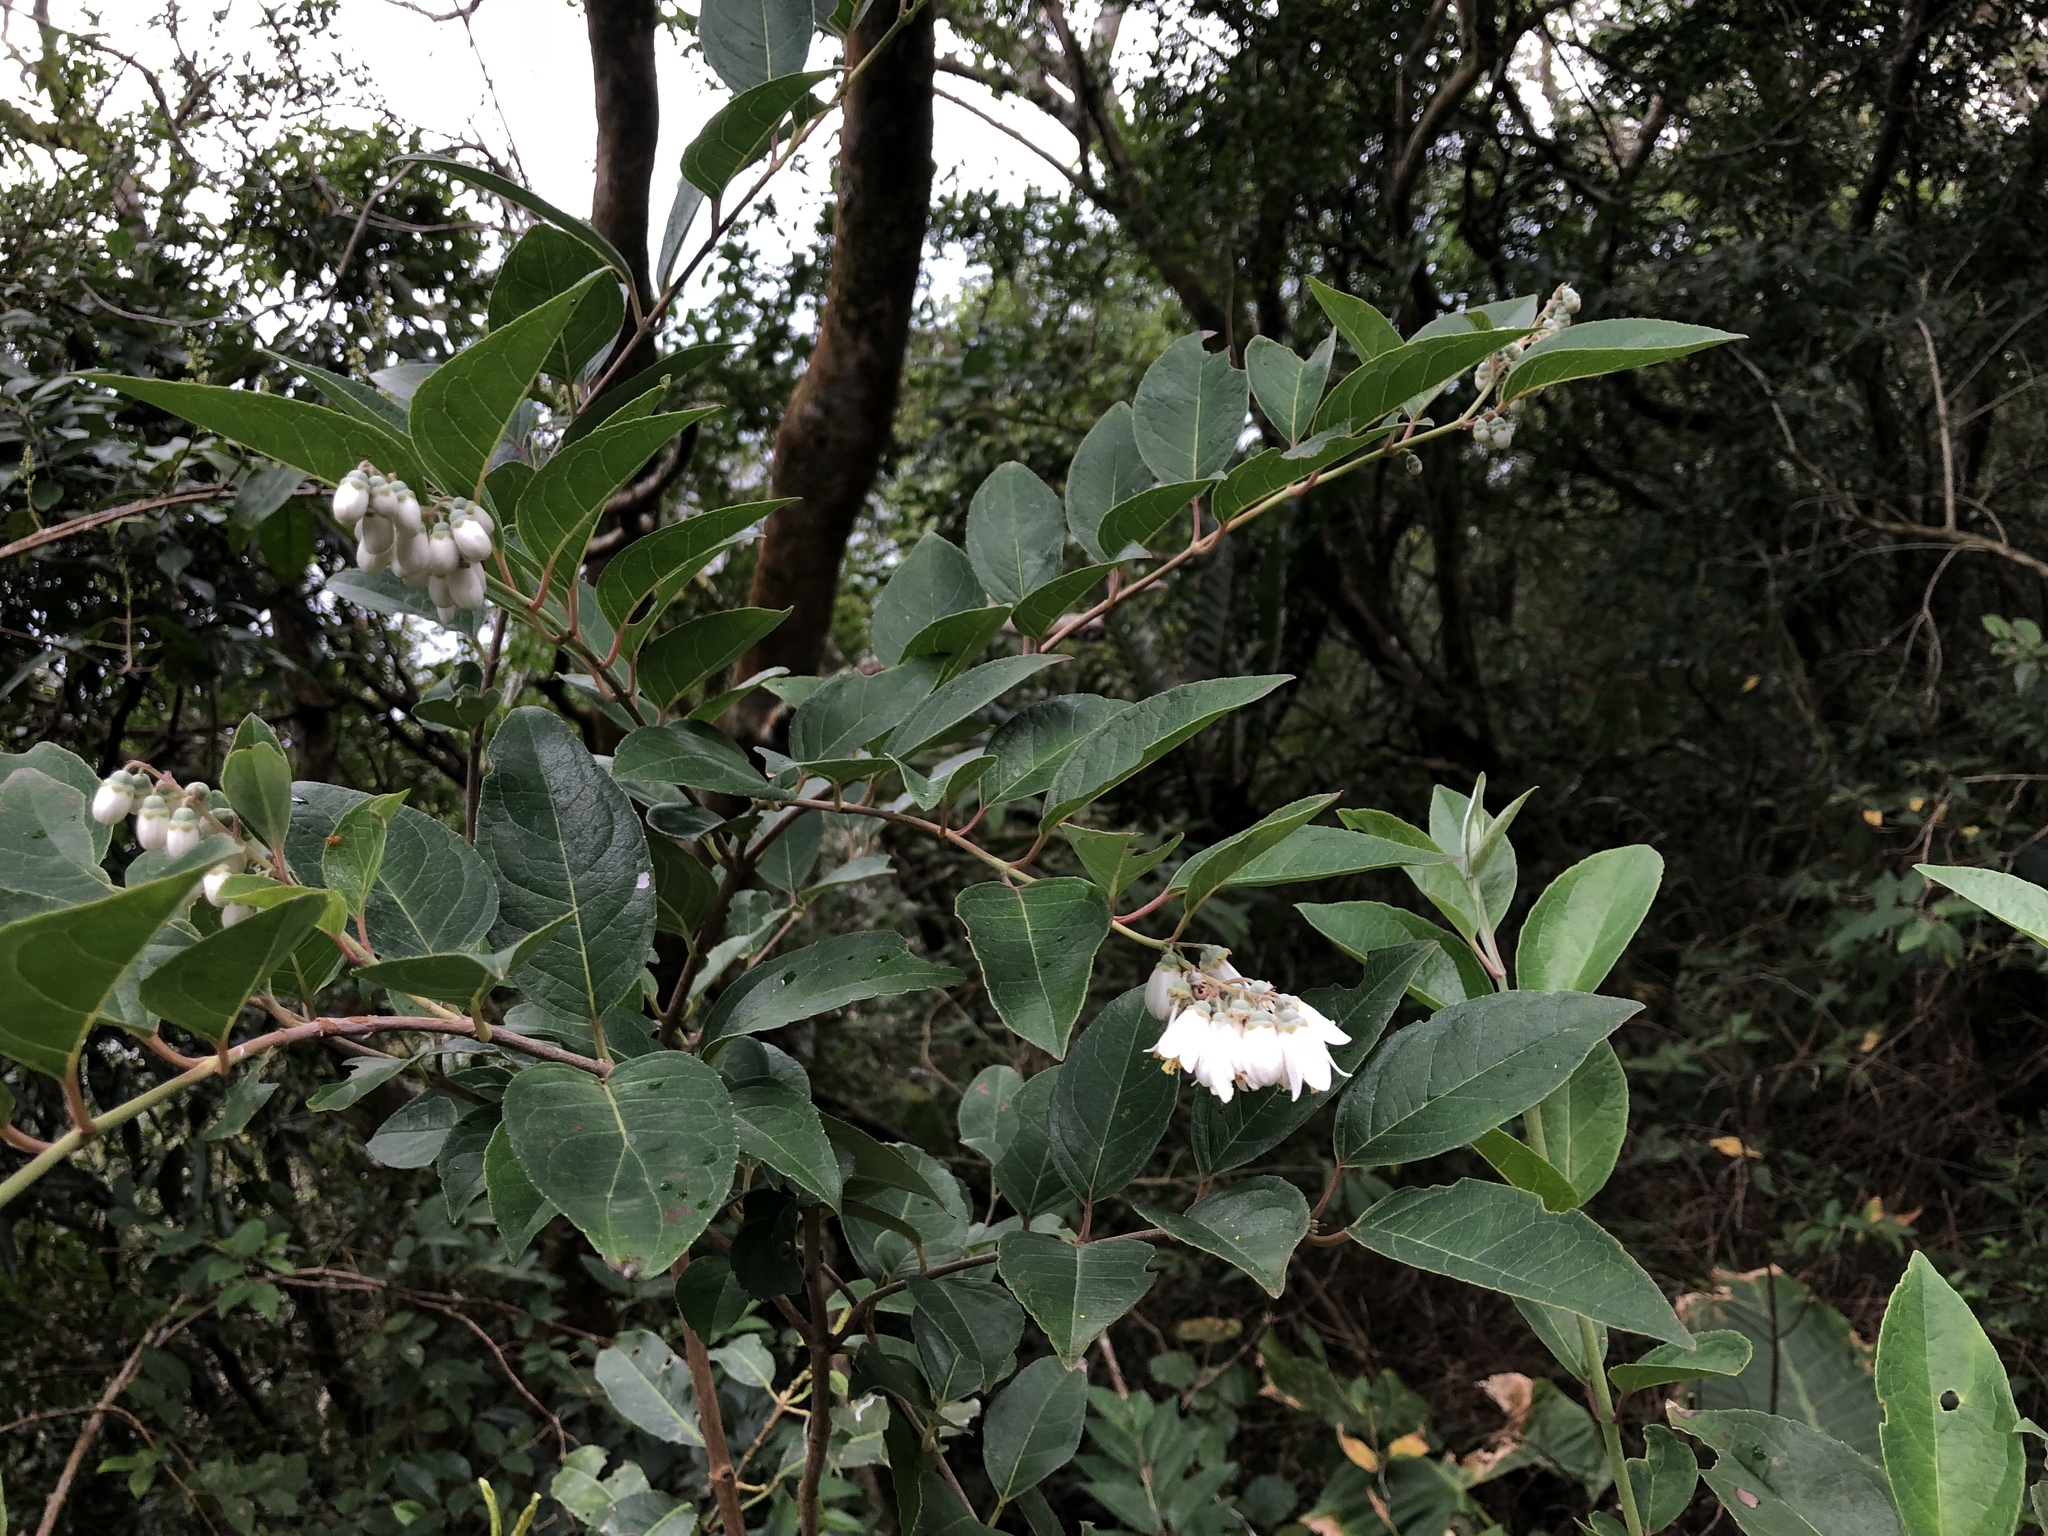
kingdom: Plantae
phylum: Tracheophyta
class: Magnoliopsida
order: Cornales
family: Hydrangeaceae
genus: Deutzia
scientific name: Deutzia pulchra
